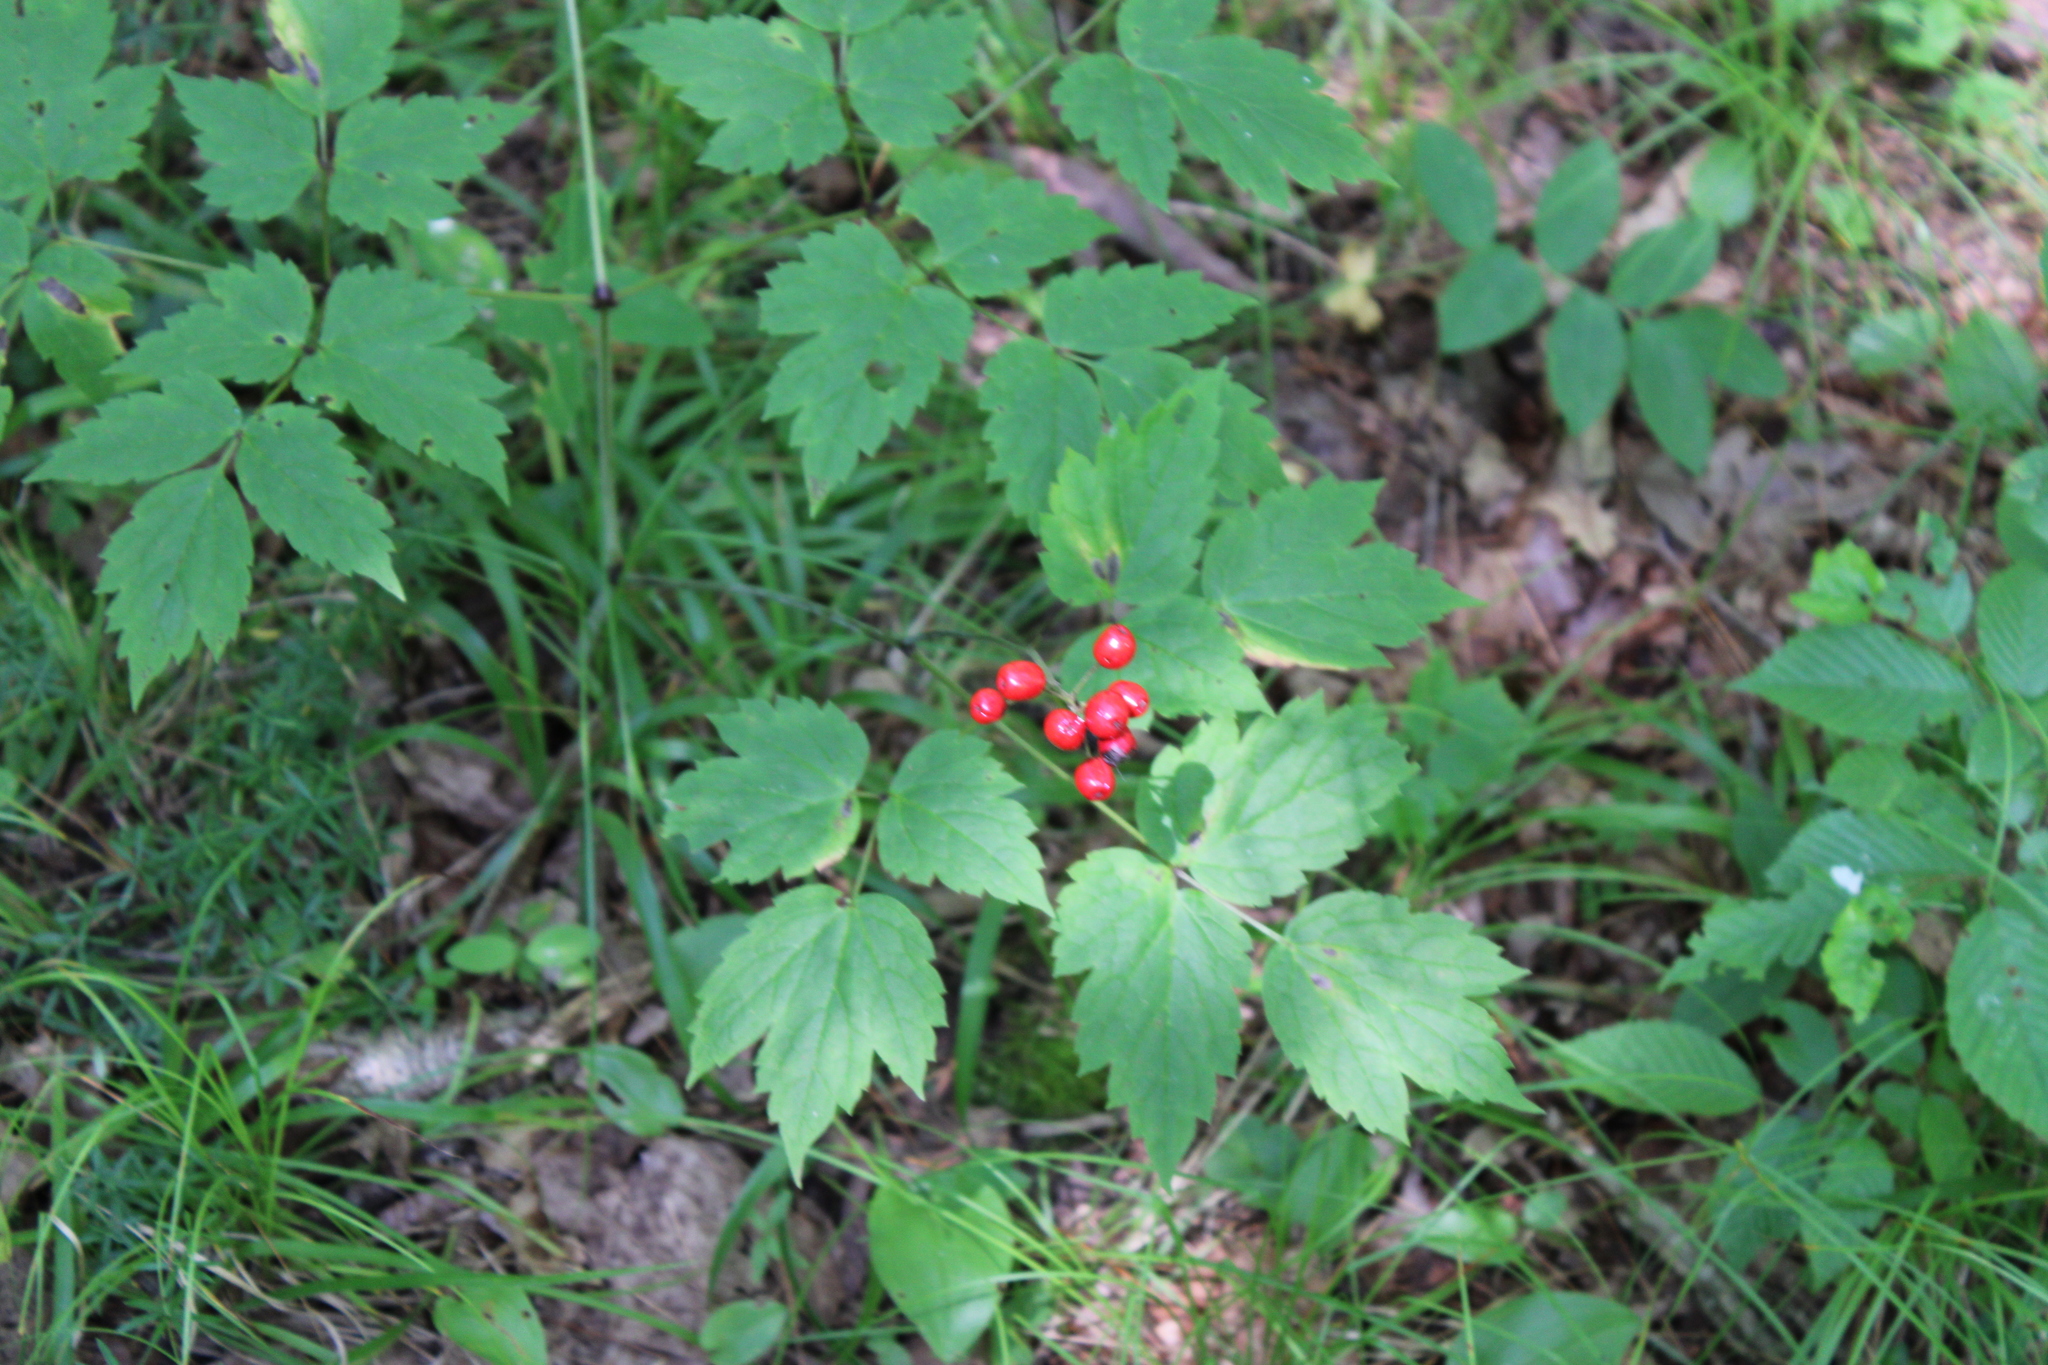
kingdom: Plantae
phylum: Tracheophyta
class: Magnoliopsida
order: Ranunculales
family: Ranunculaceae
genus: Actaea
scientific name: Actaea rubra
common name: Red baneberry
